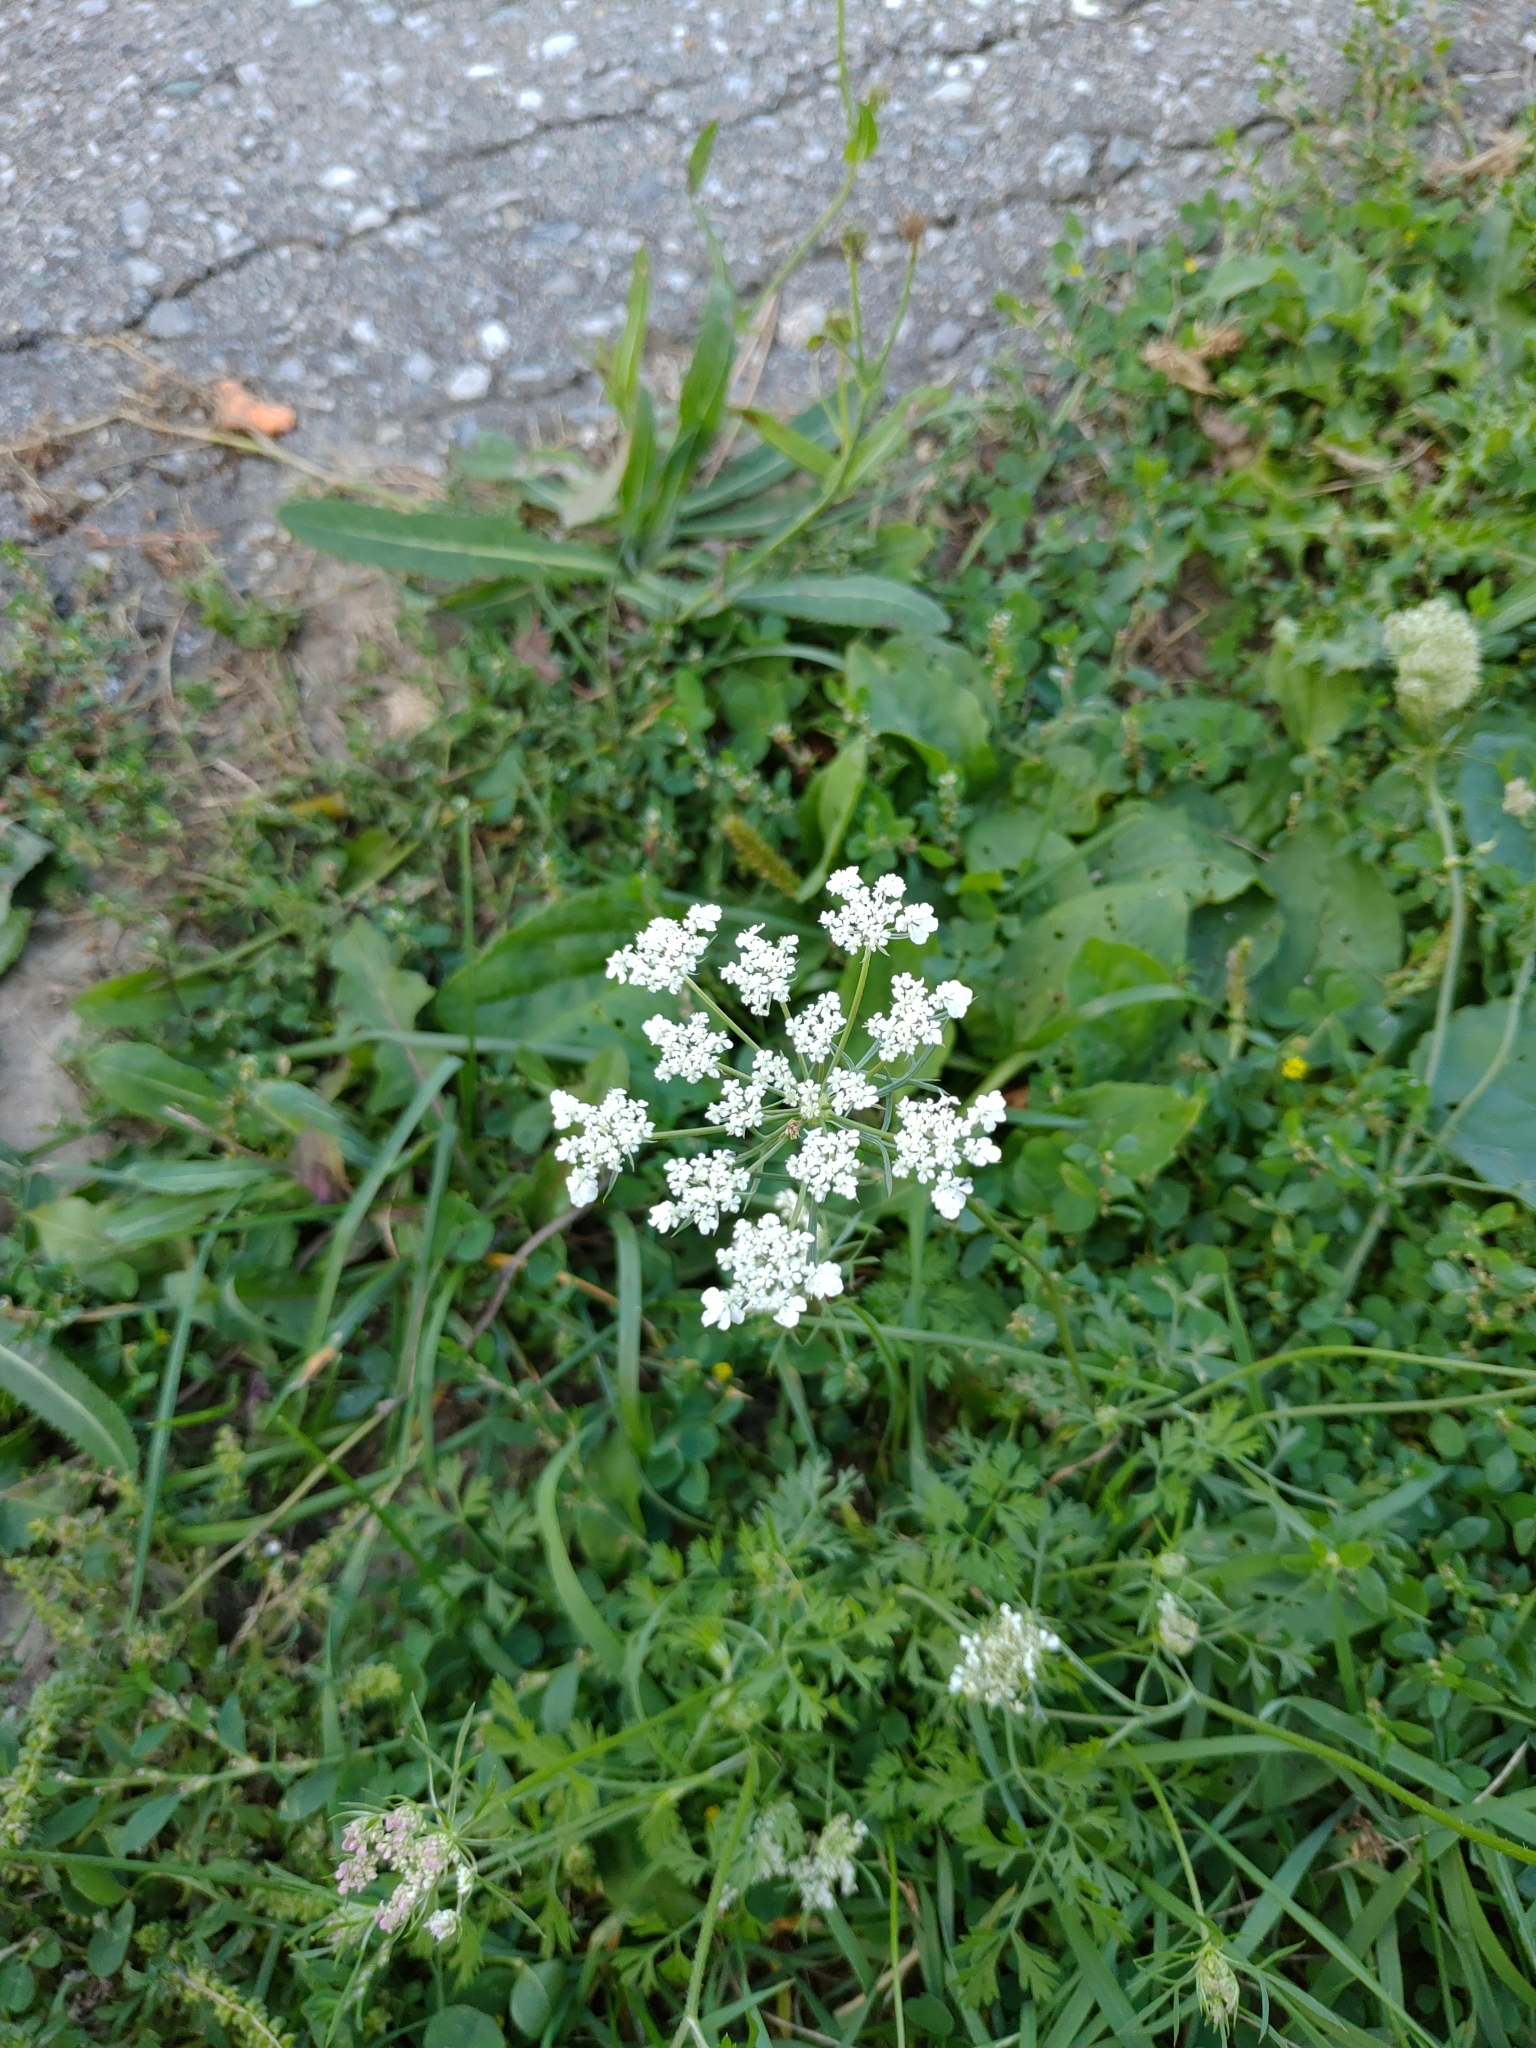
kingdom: Plantae
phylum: Tracheophyta
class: Magnoliopsida
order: Apiales
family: Apiaceae
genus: Daucus
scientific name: Daucus carota
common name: Wild carrot
